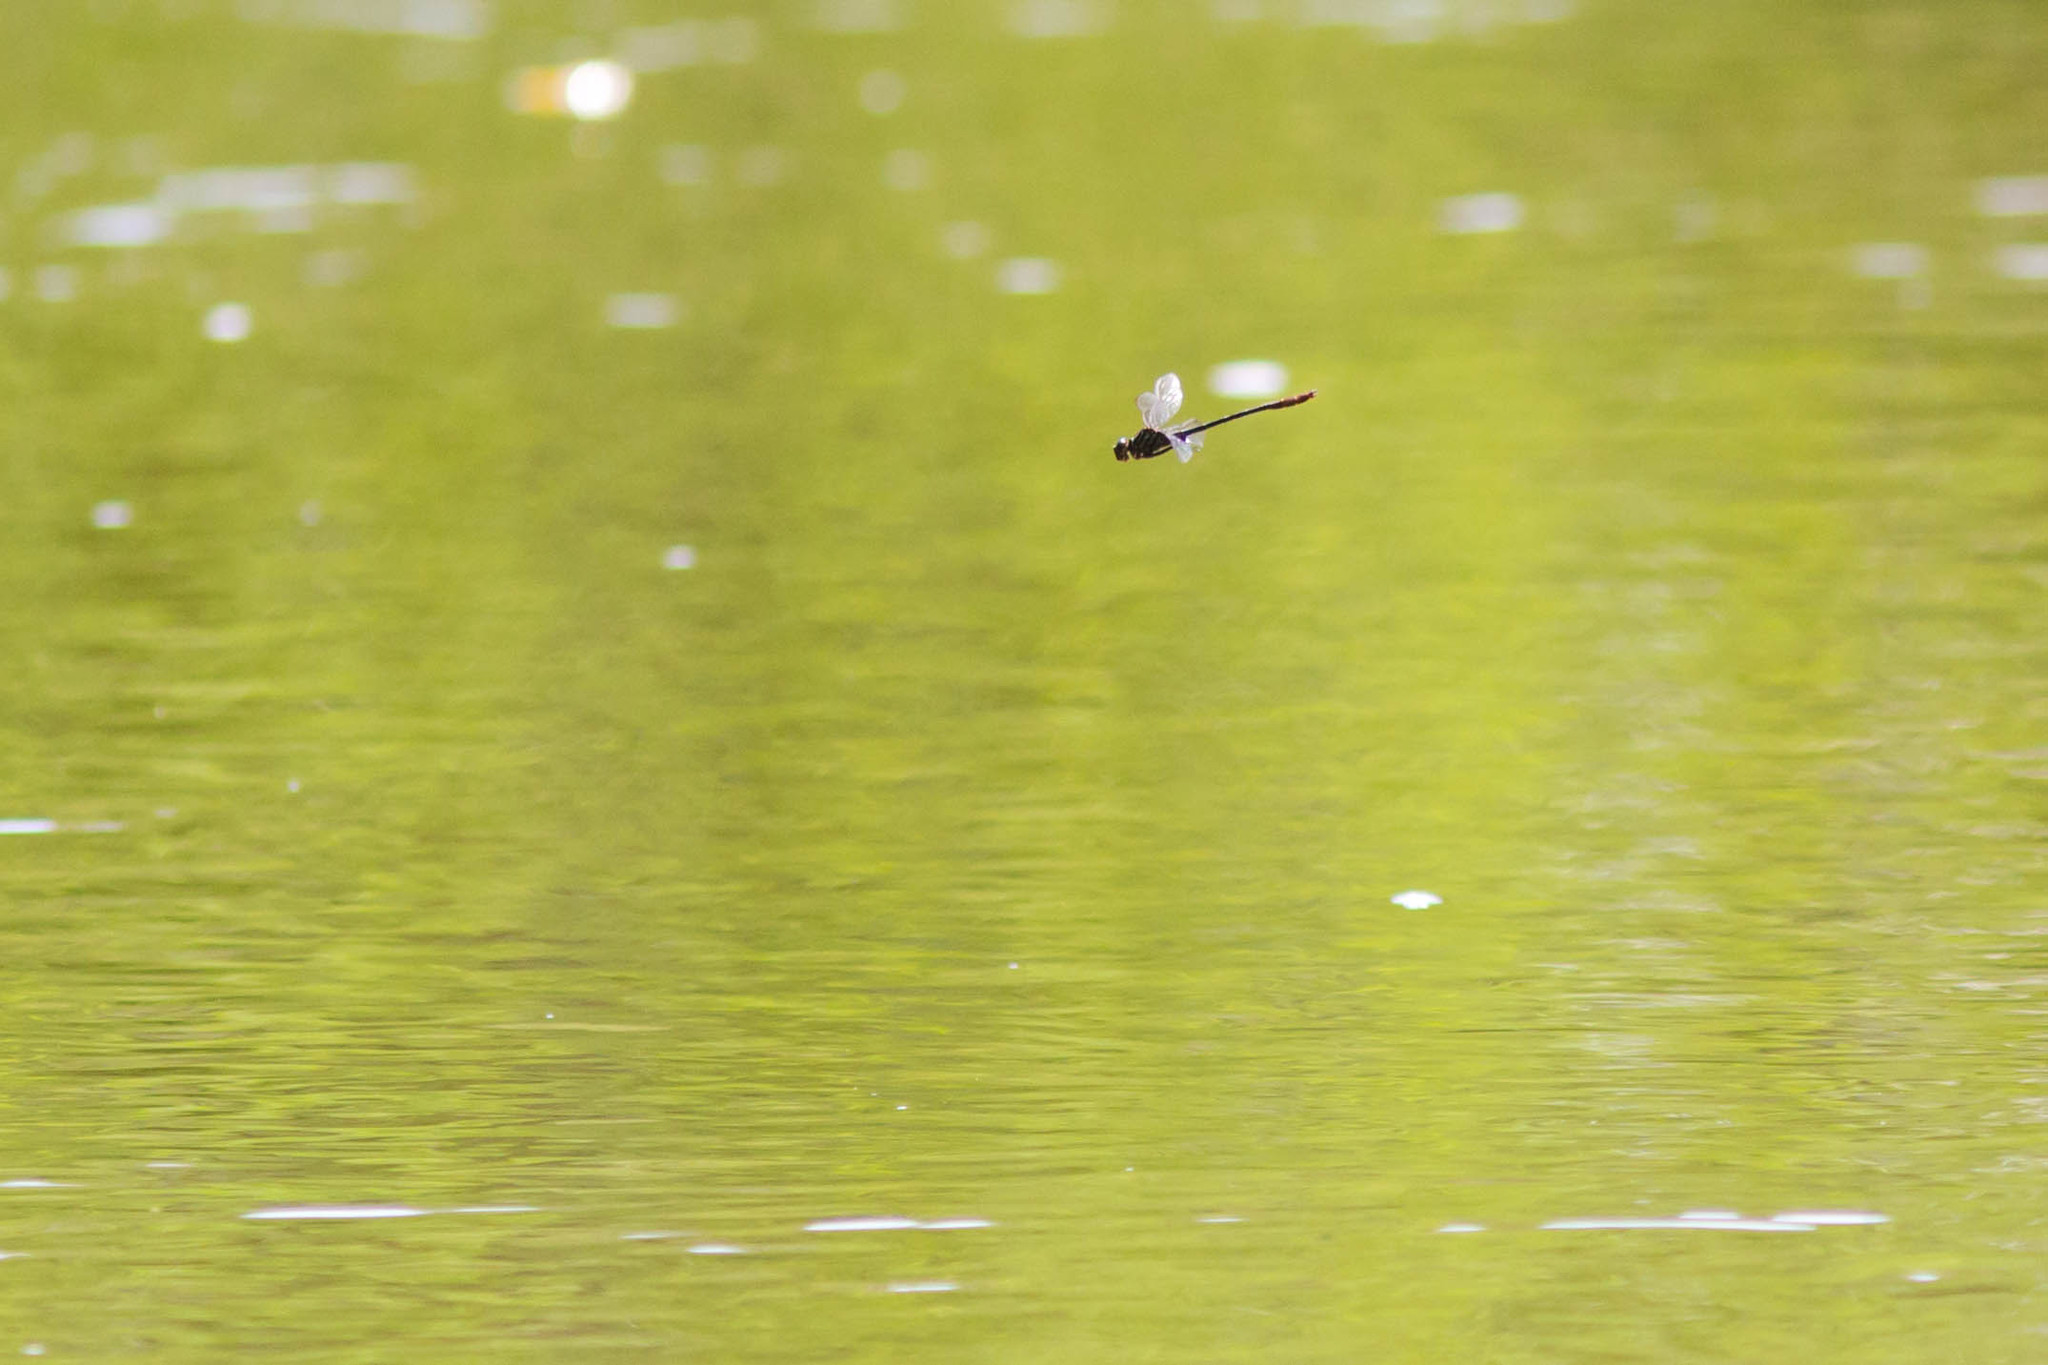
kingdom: Animalia
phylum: Arthropoda
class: Insecta
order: Odonata
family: Gomphidae
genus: Stylurus
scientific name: Stylurus plagiatus
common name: Russet-tipped clubtail
